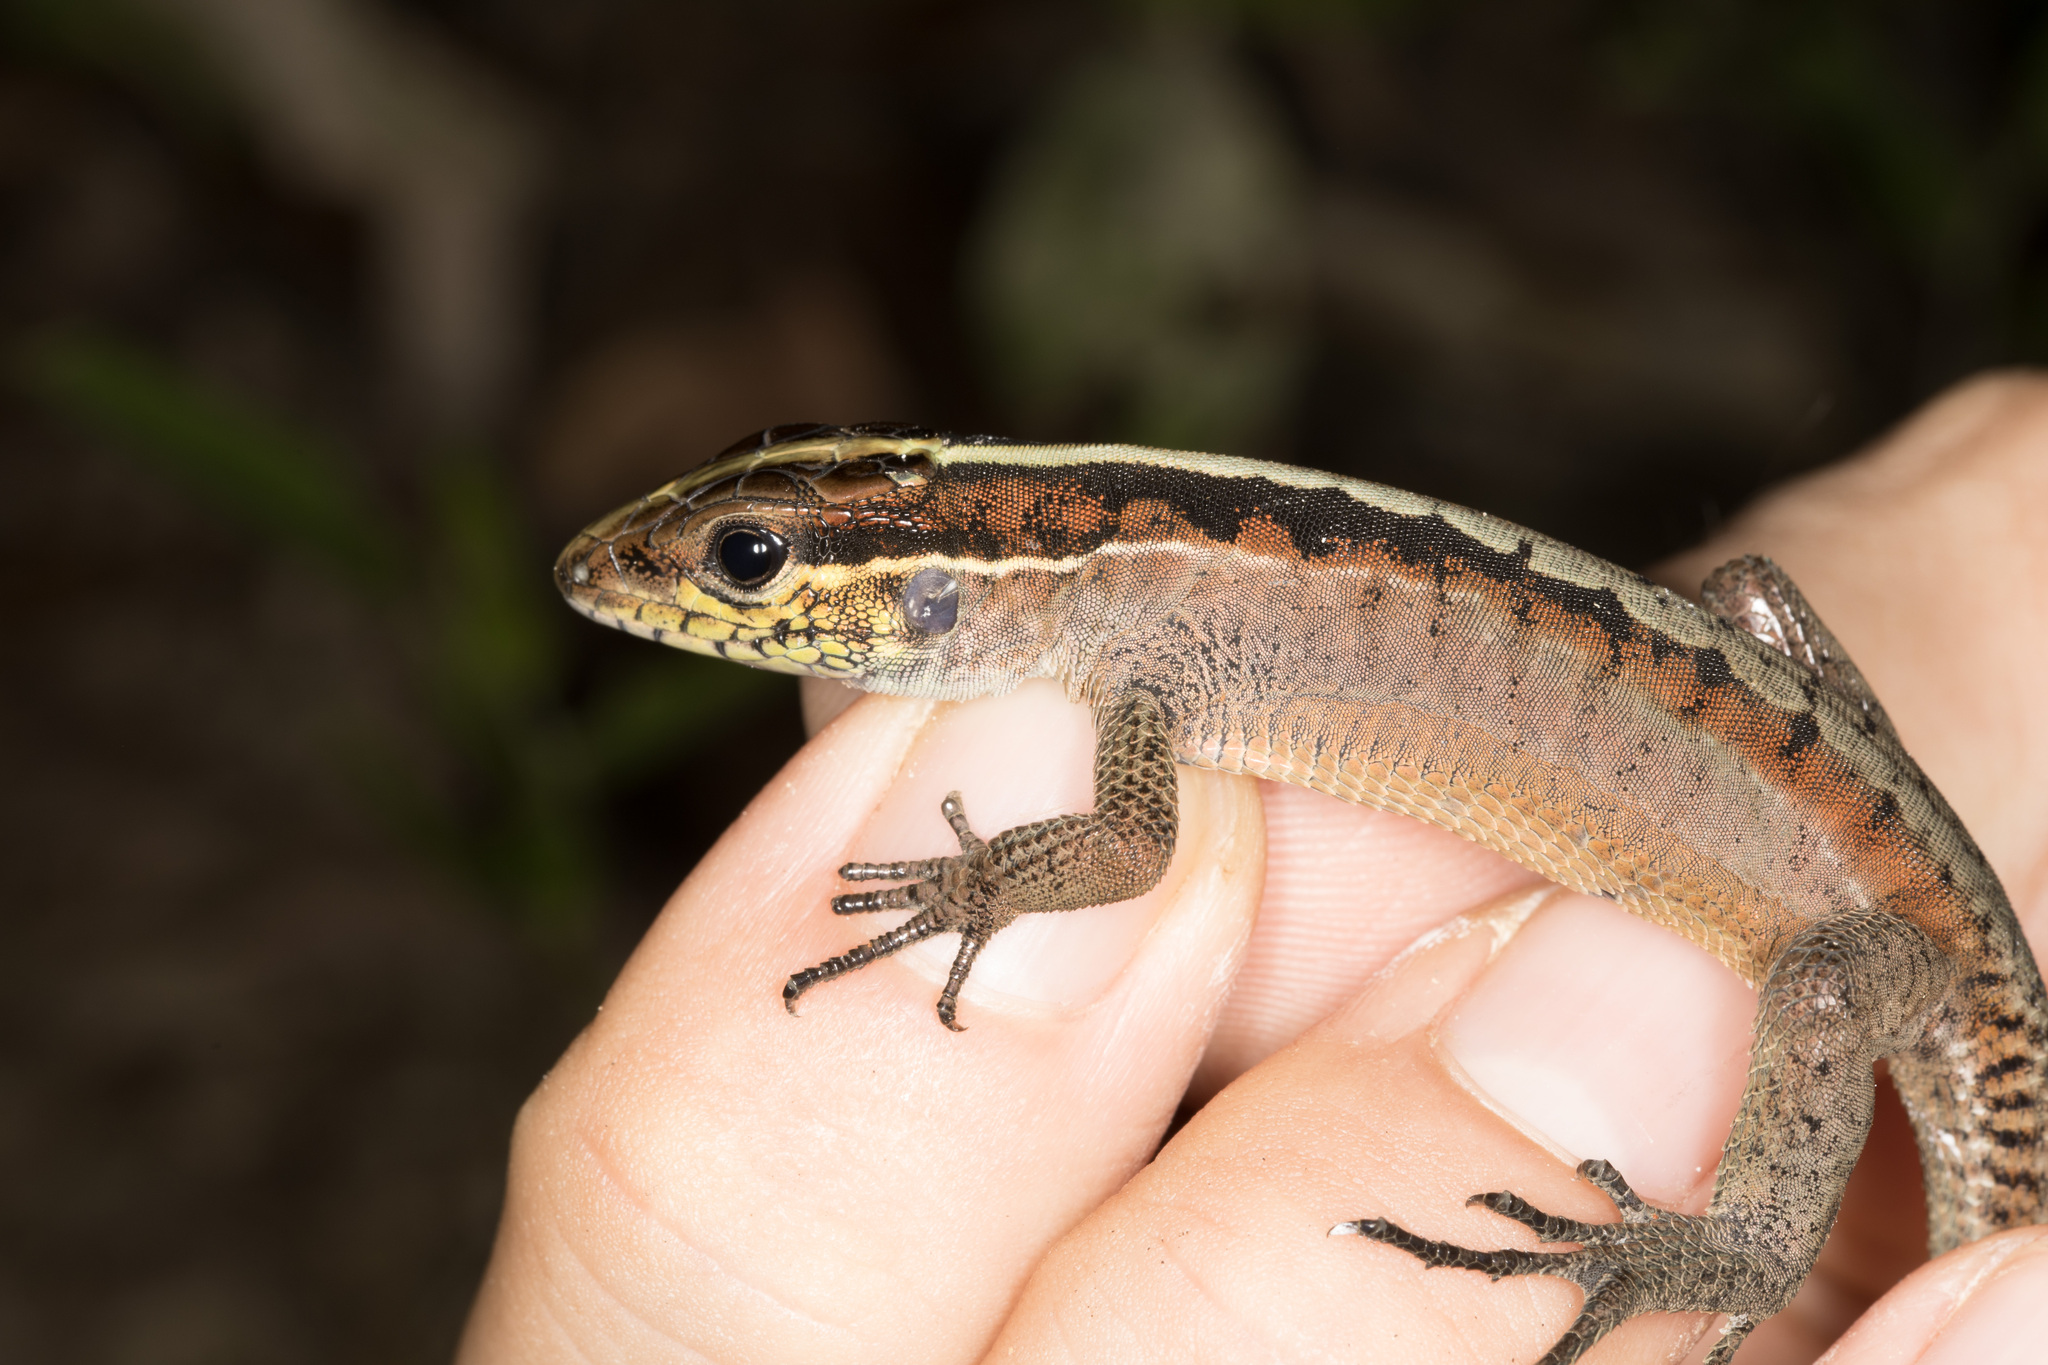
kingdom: Animalia
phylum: Chordata
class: Squamata
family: Teiidae
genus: Kentropyx
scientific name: Kentropyx pelviceps
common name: Forest whiptail
